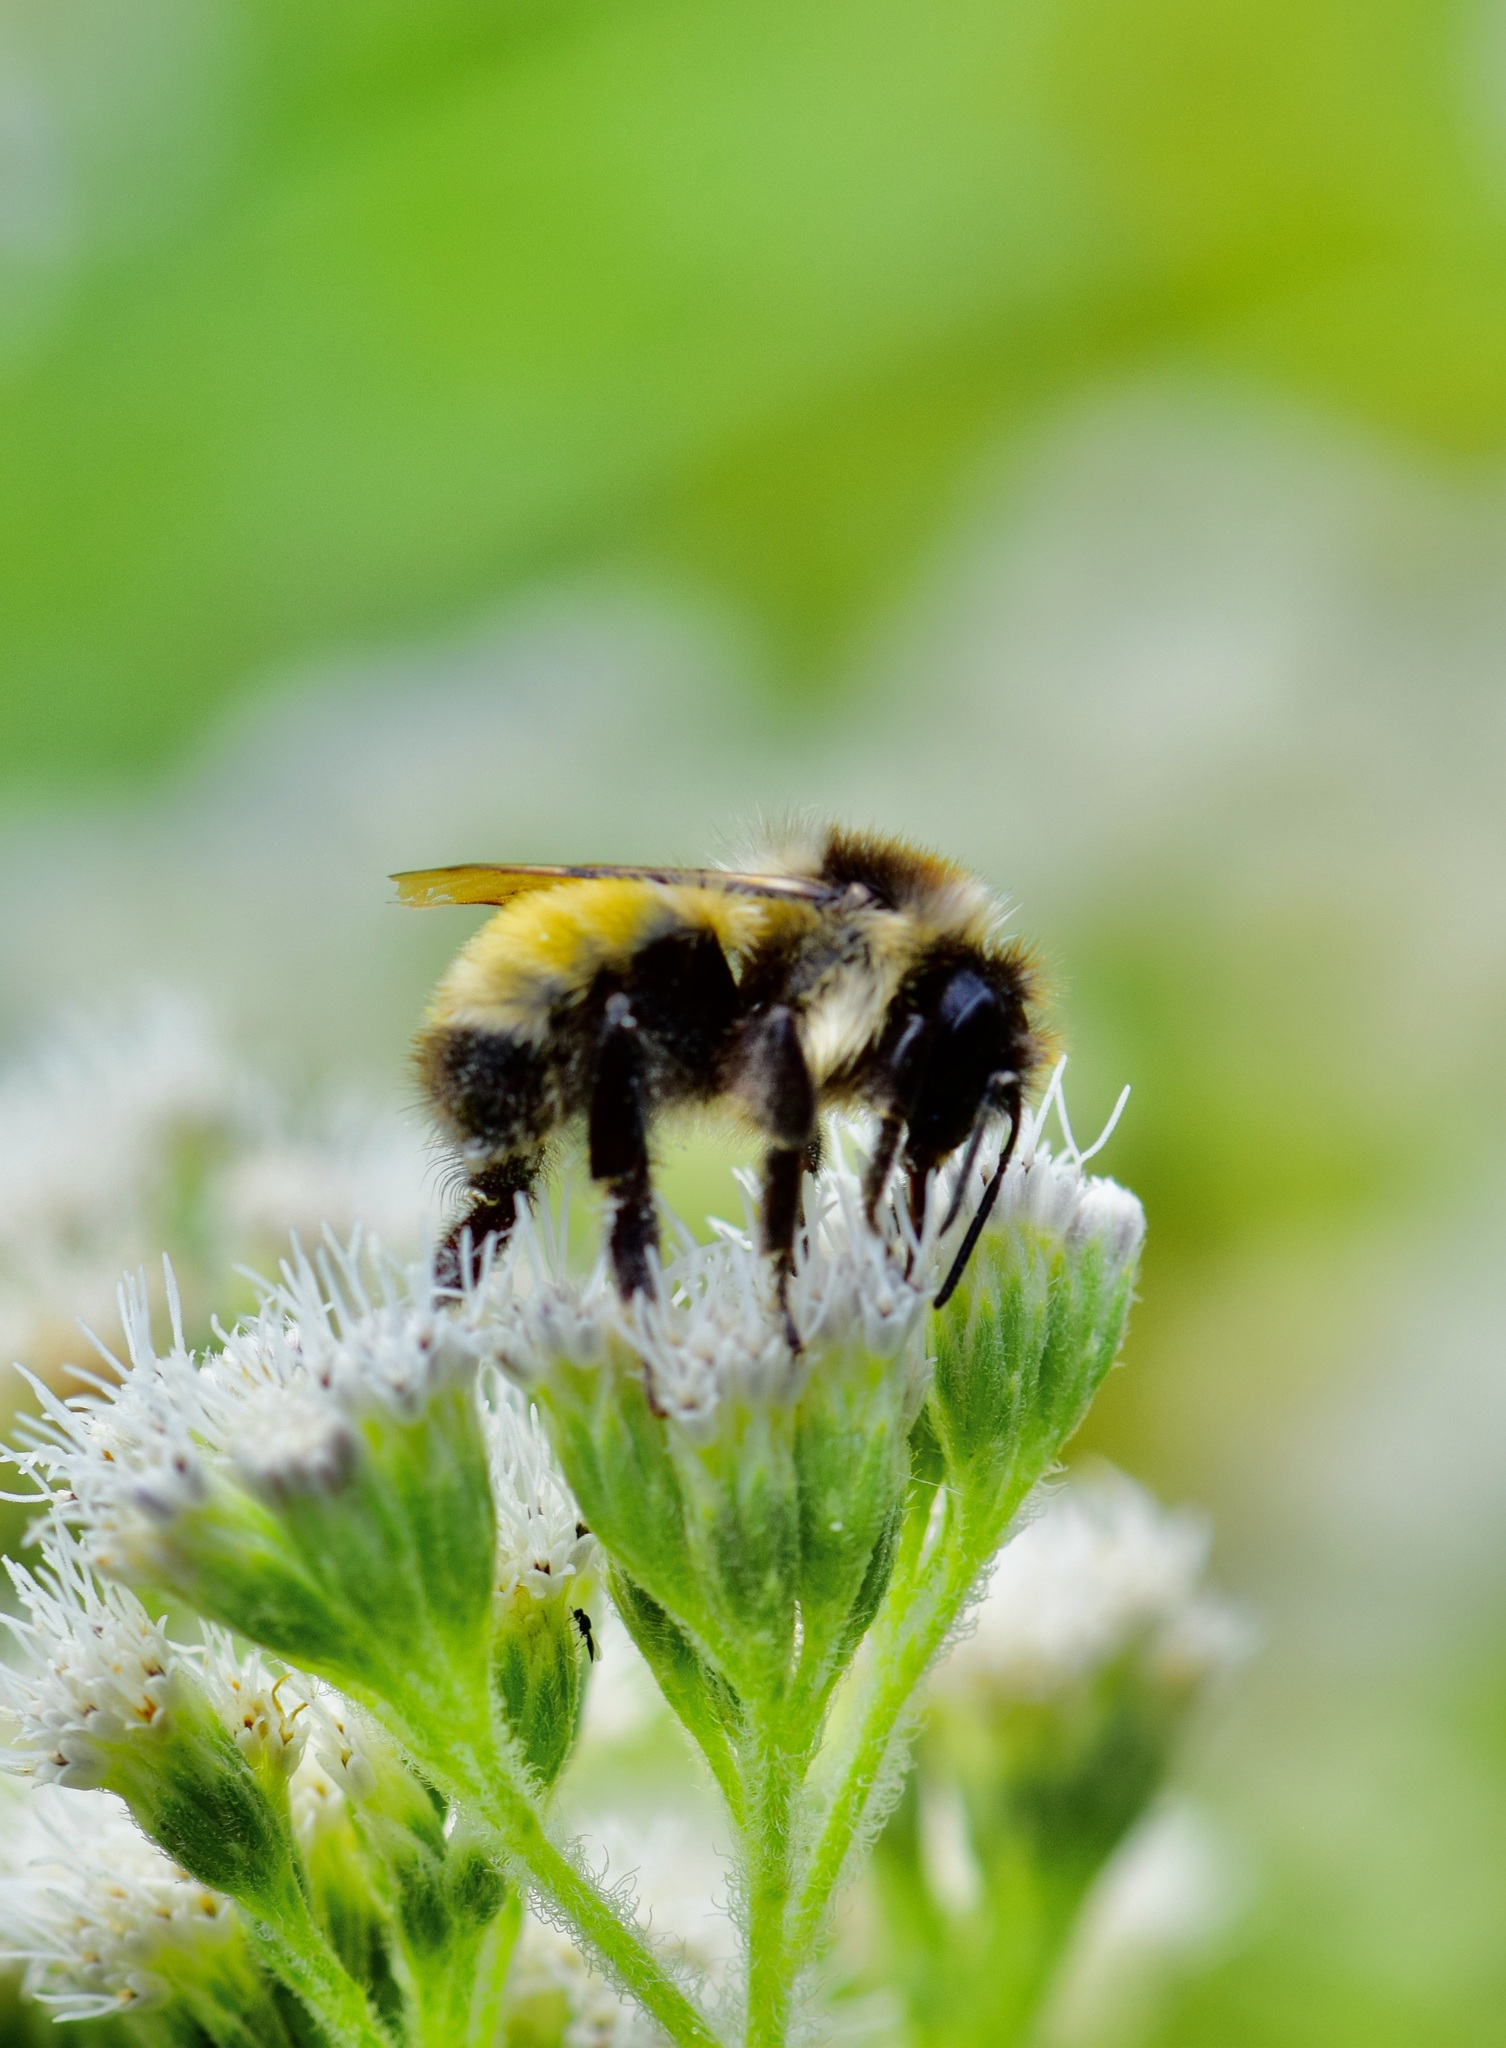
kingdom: Animalia
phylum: Arthropoda
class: Insecta
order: Hymenoptera
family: Apidae
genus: Bombus
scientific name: Bombus ternarius
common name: Tri-colored bumble bee
